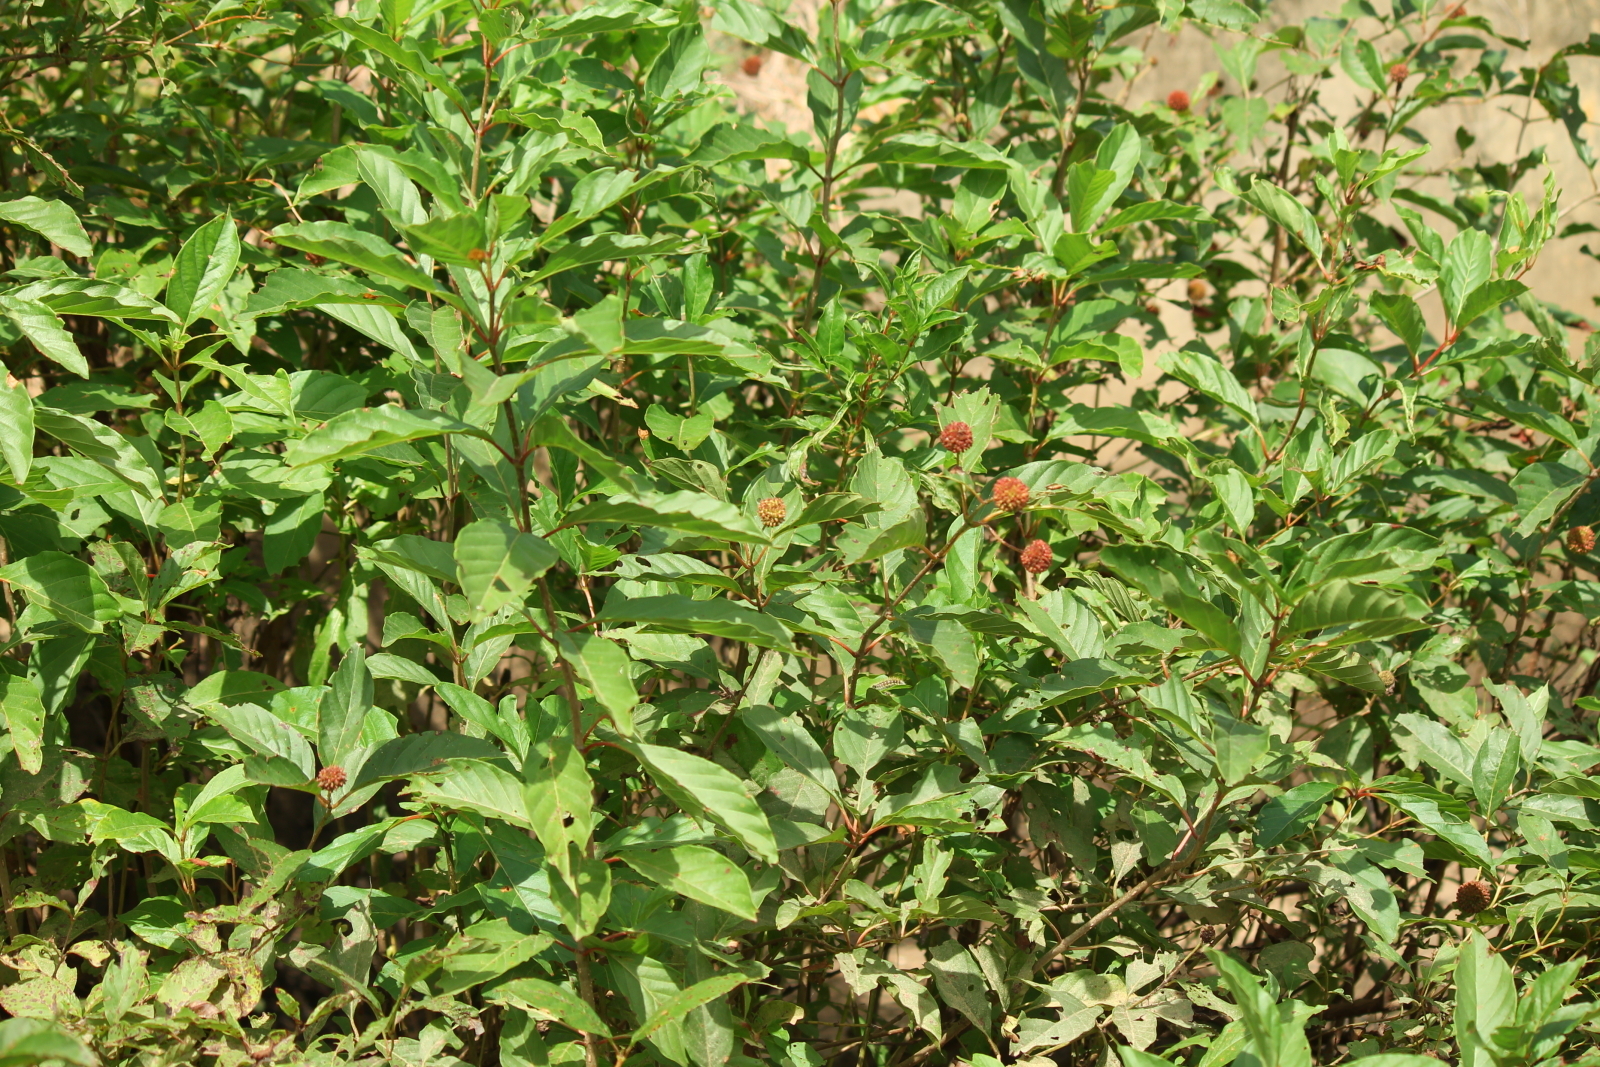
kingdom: Plantae
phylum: Tracheophyta
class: Magnoliopsida
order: Gentianales
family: Rubiaceae
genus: Cephalanthus
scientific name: Cephalanthus occidentalis
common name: Button-willow
